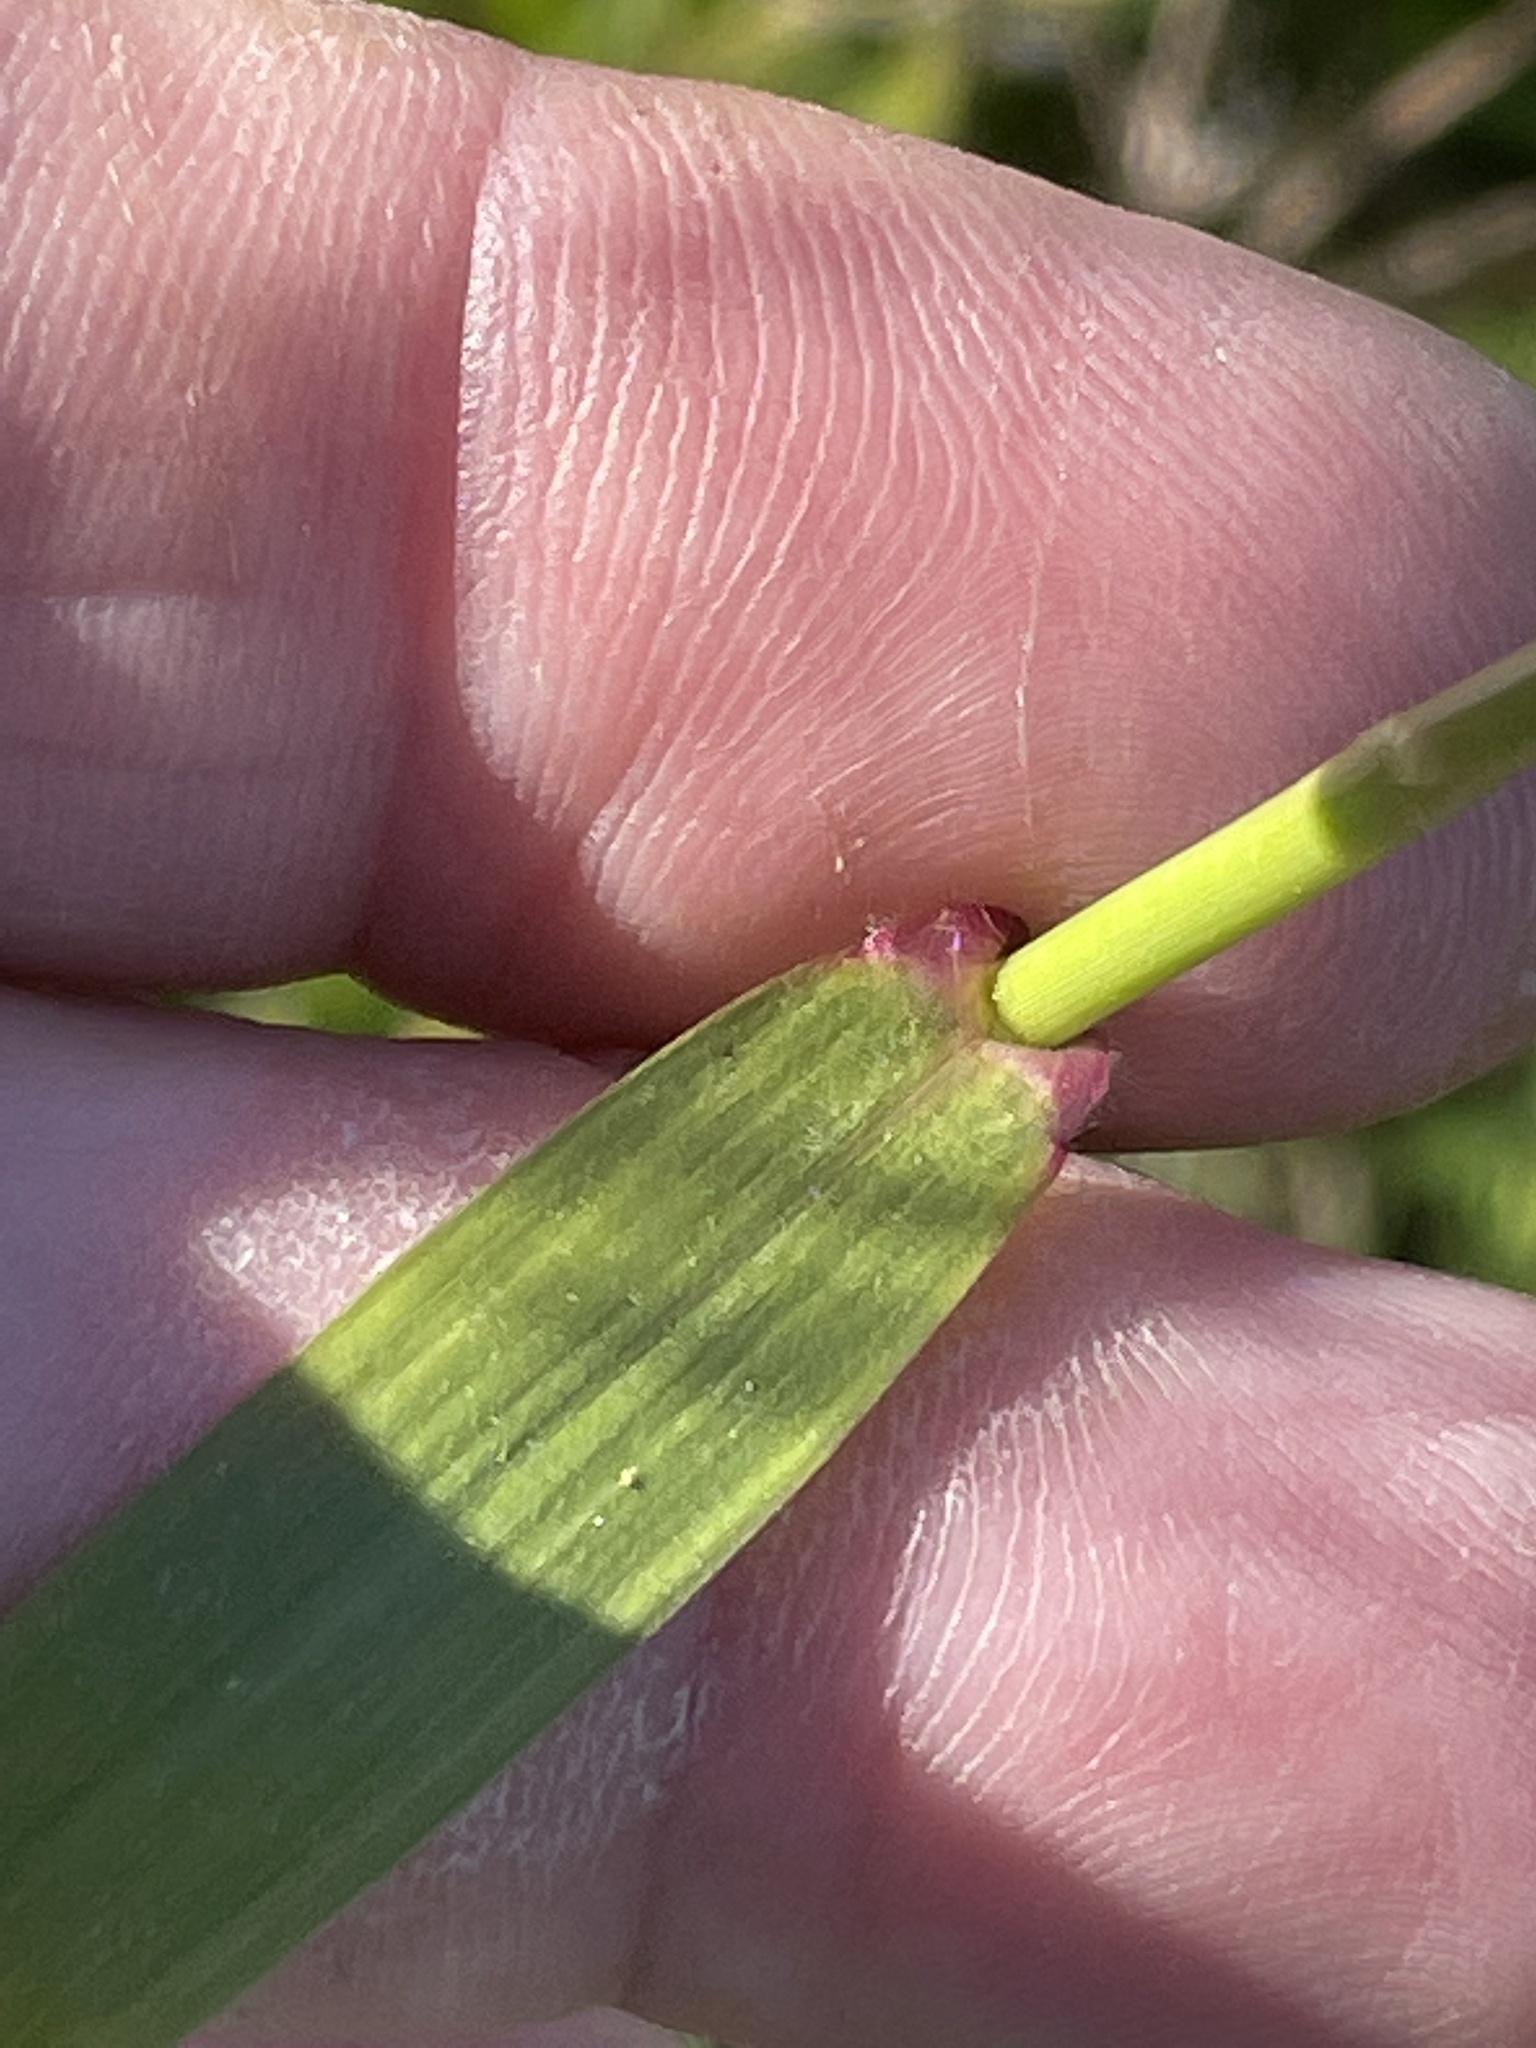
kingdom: Plantae
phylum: Tracheophyta
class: Liliopsida
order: Poales
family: Poaceae
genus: Tridens
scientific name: Tridens flavus
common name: Purpletop
